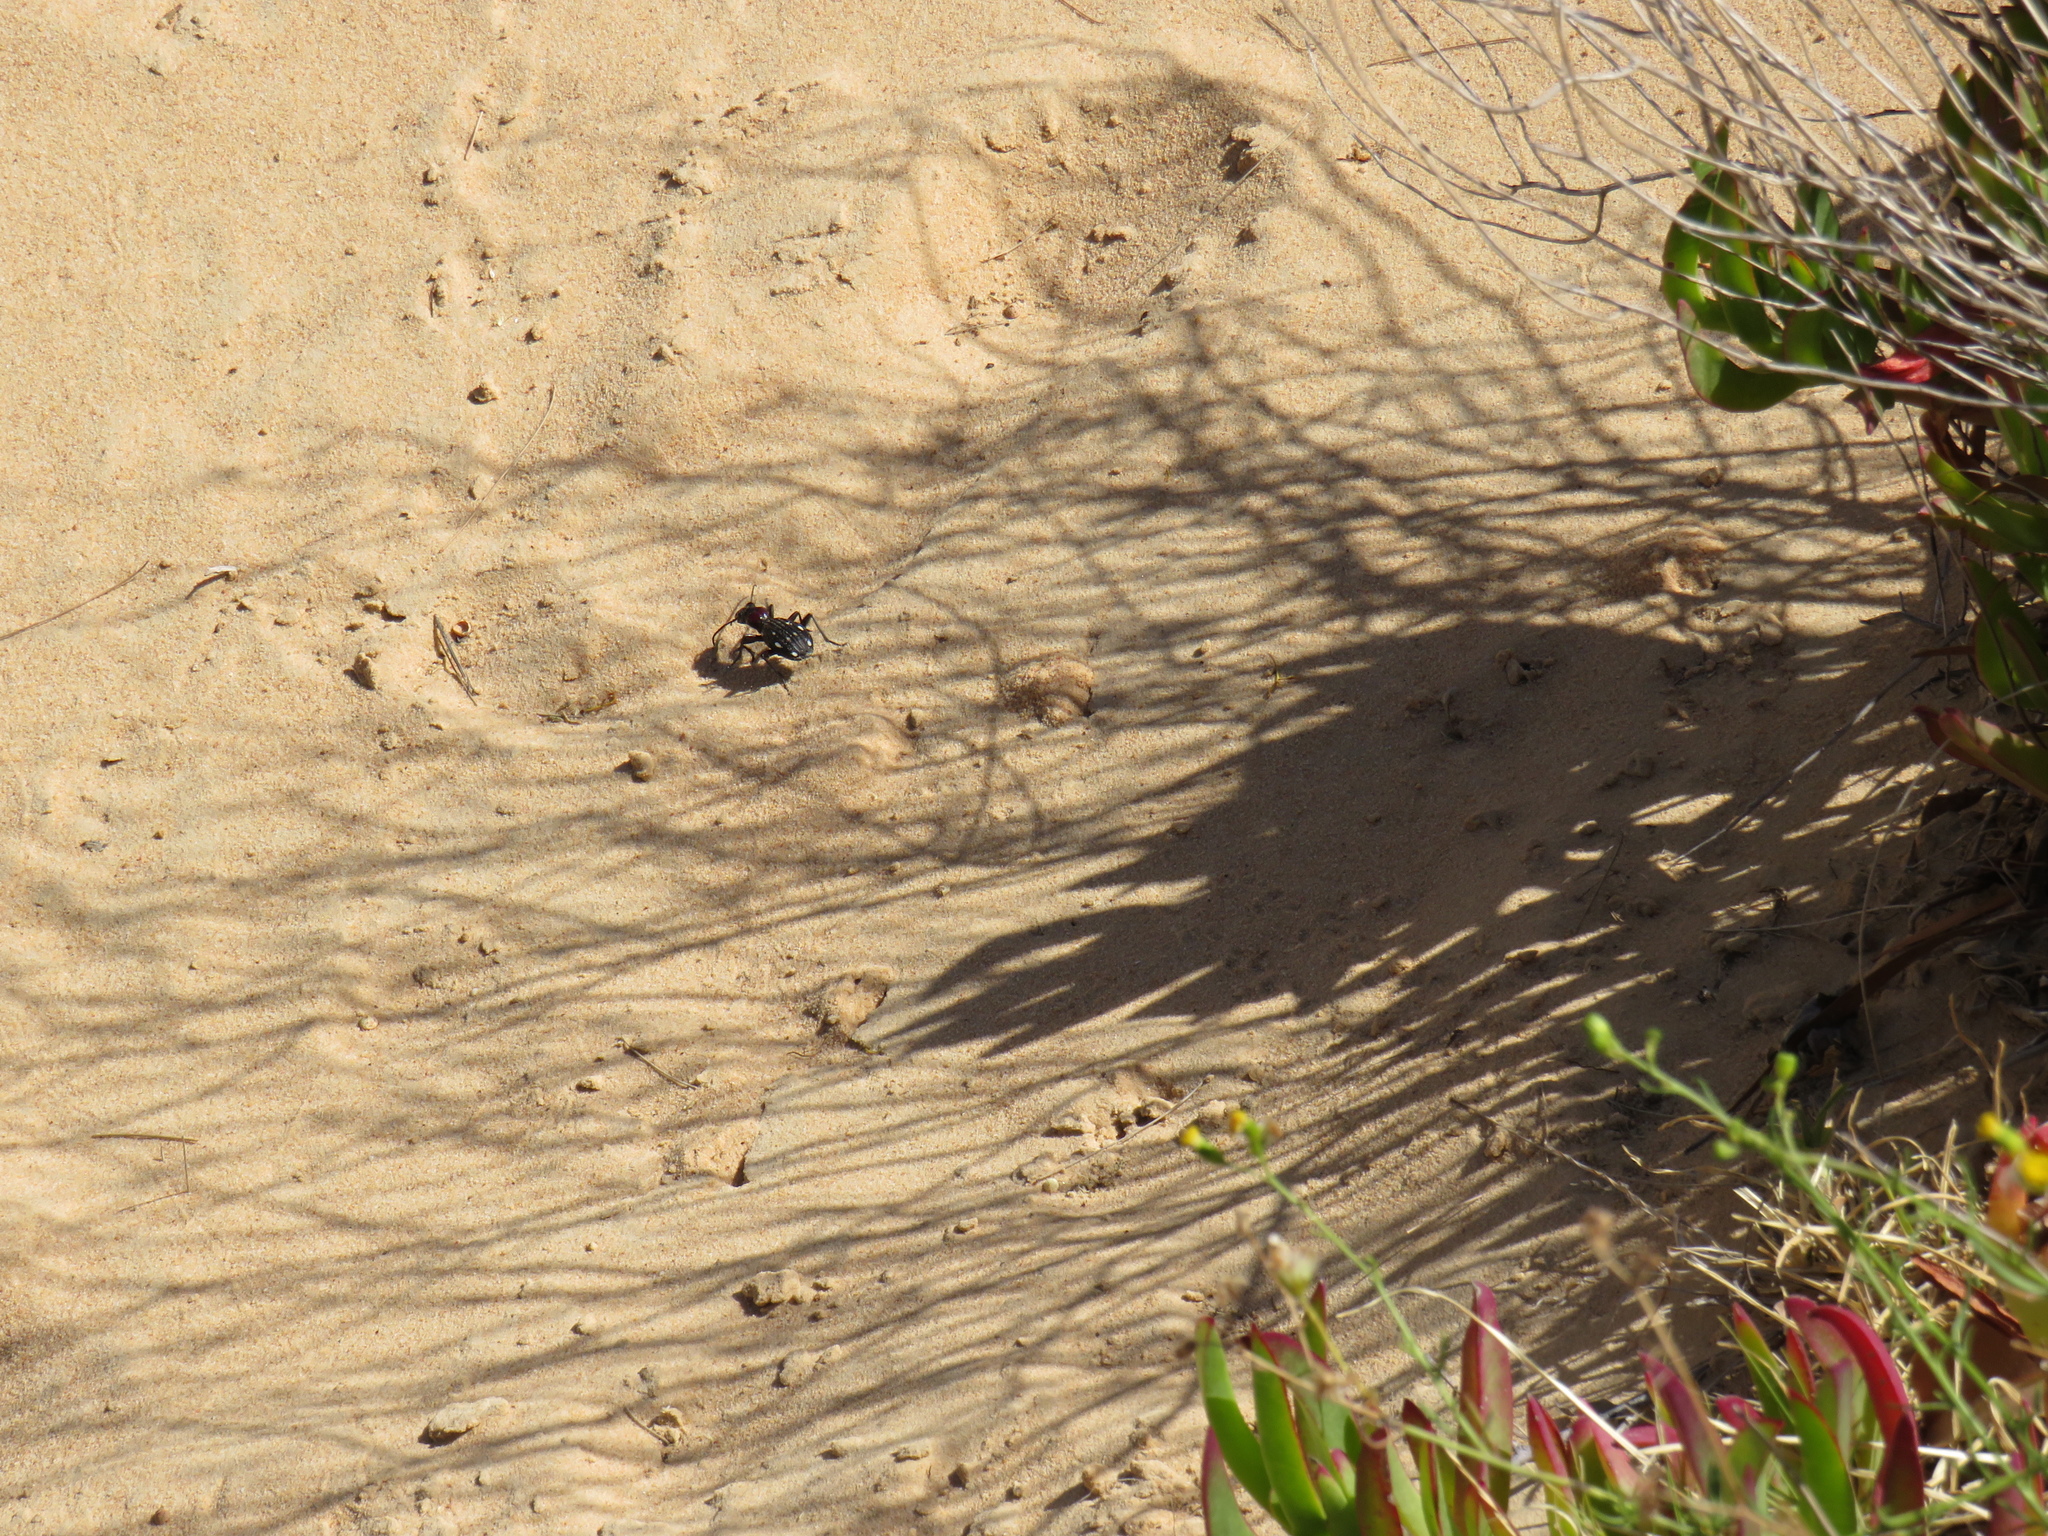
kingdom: Animalia
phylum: Arthropoda
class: Insecta
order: Coleoptera
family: Carabidae
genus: Anthia
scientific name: Anthia decemguttata
